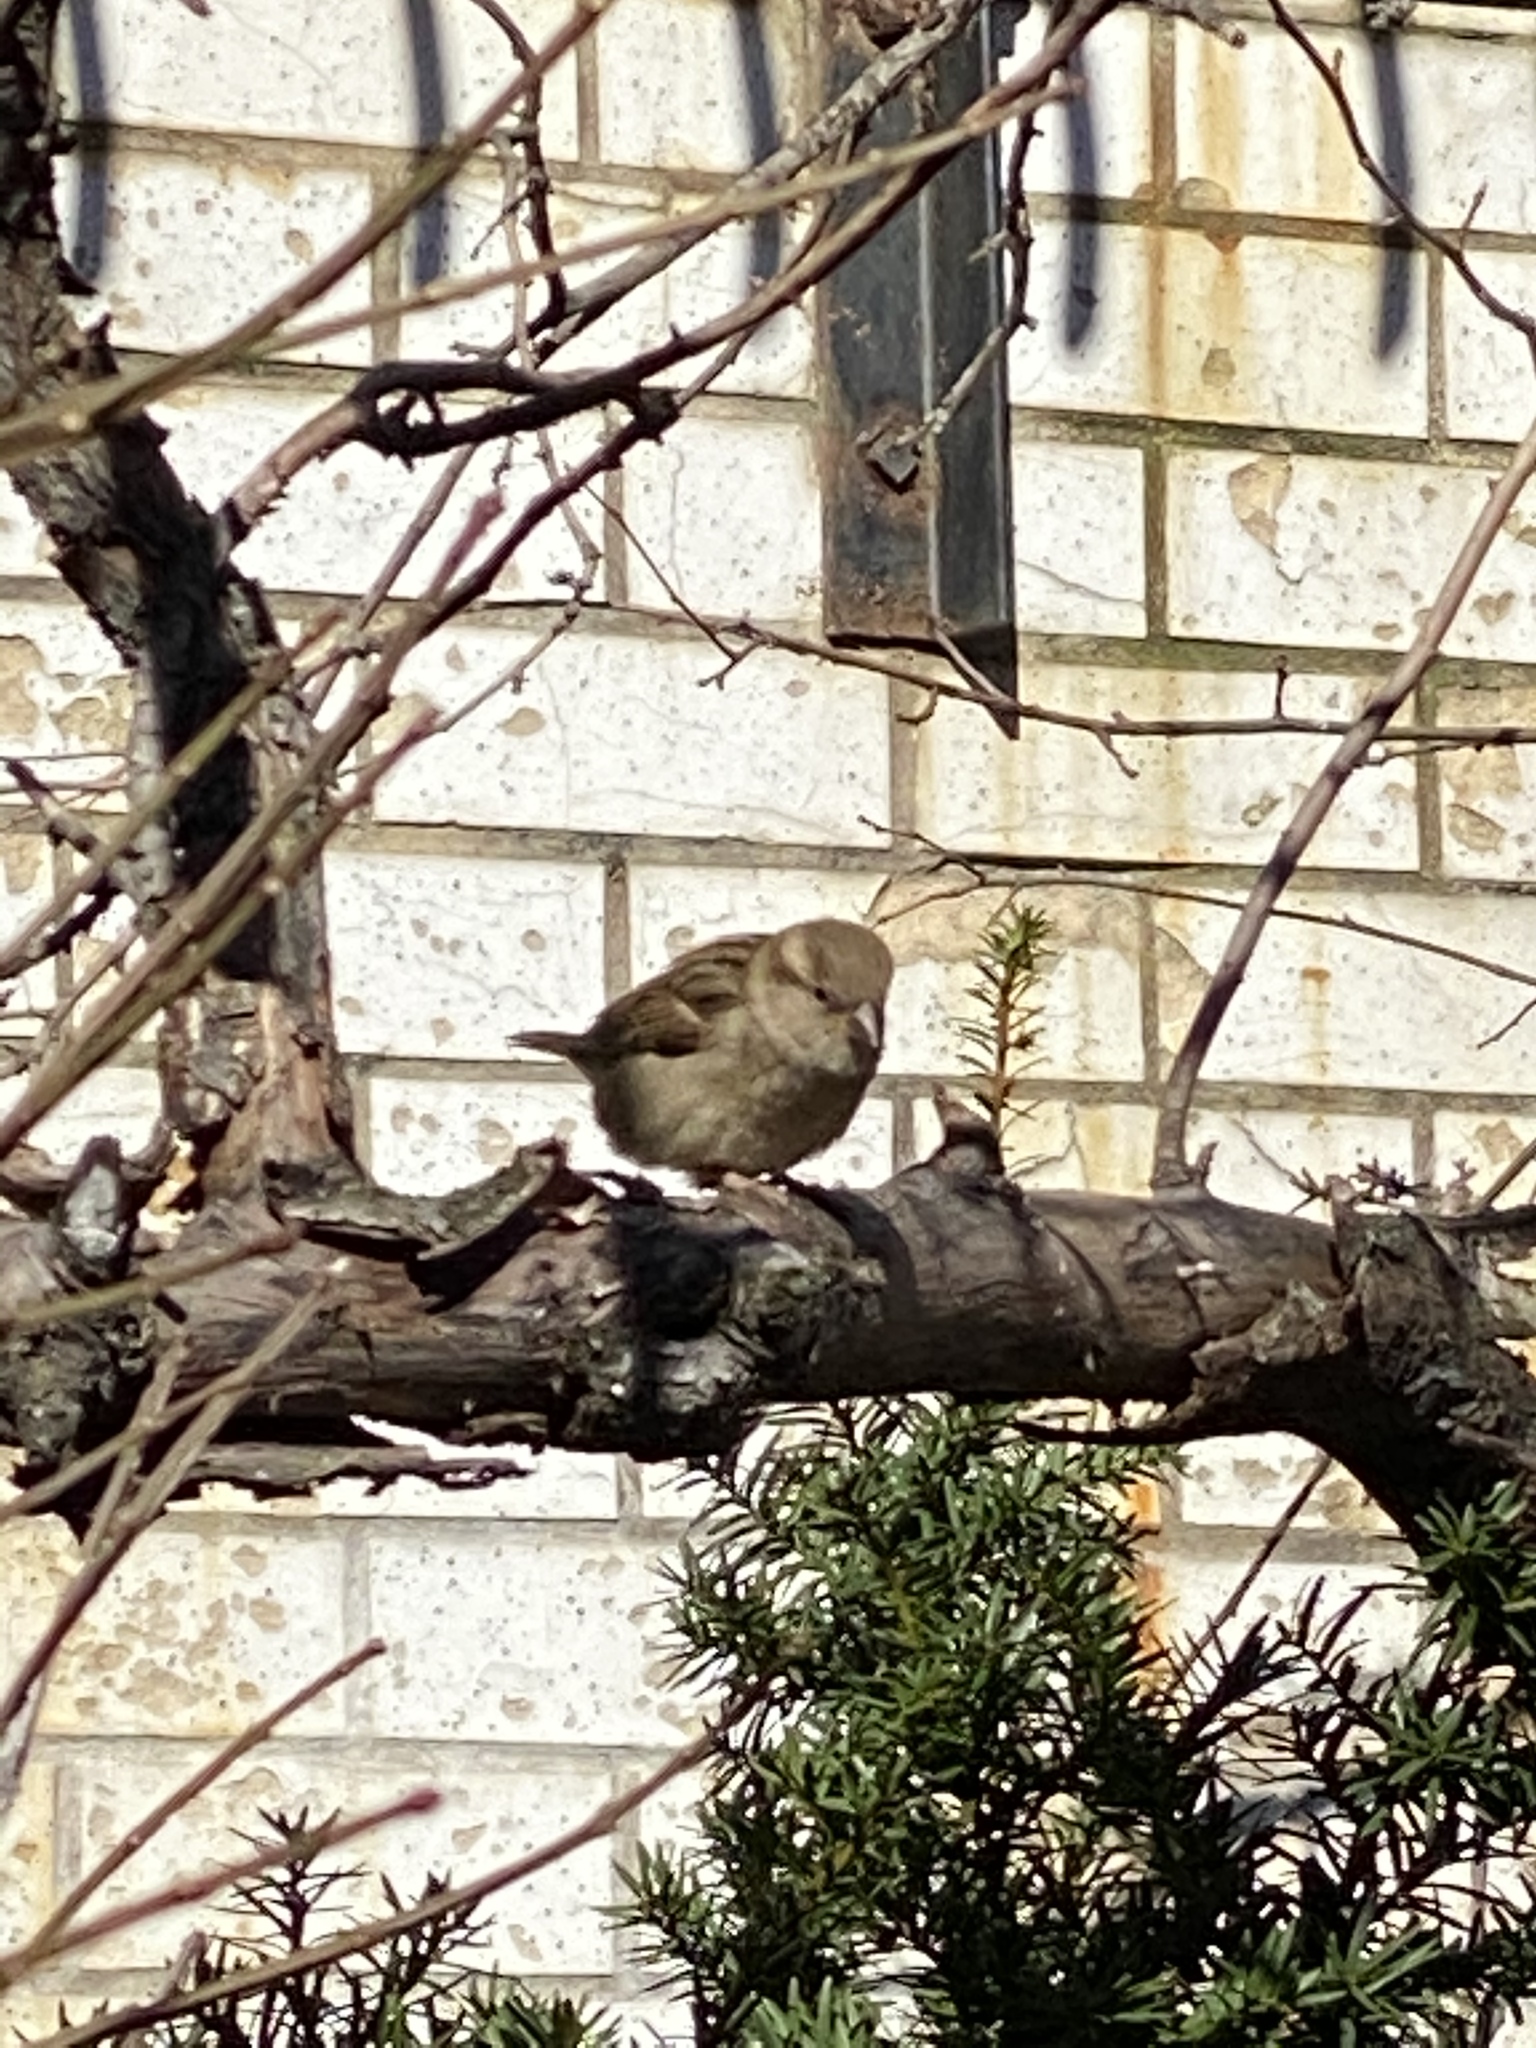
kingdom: Animalia
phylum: Chordata
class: Aves
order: Passeriformes
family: Passeridae
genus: Passer
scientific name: Passer domesticus
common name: House sparrow
